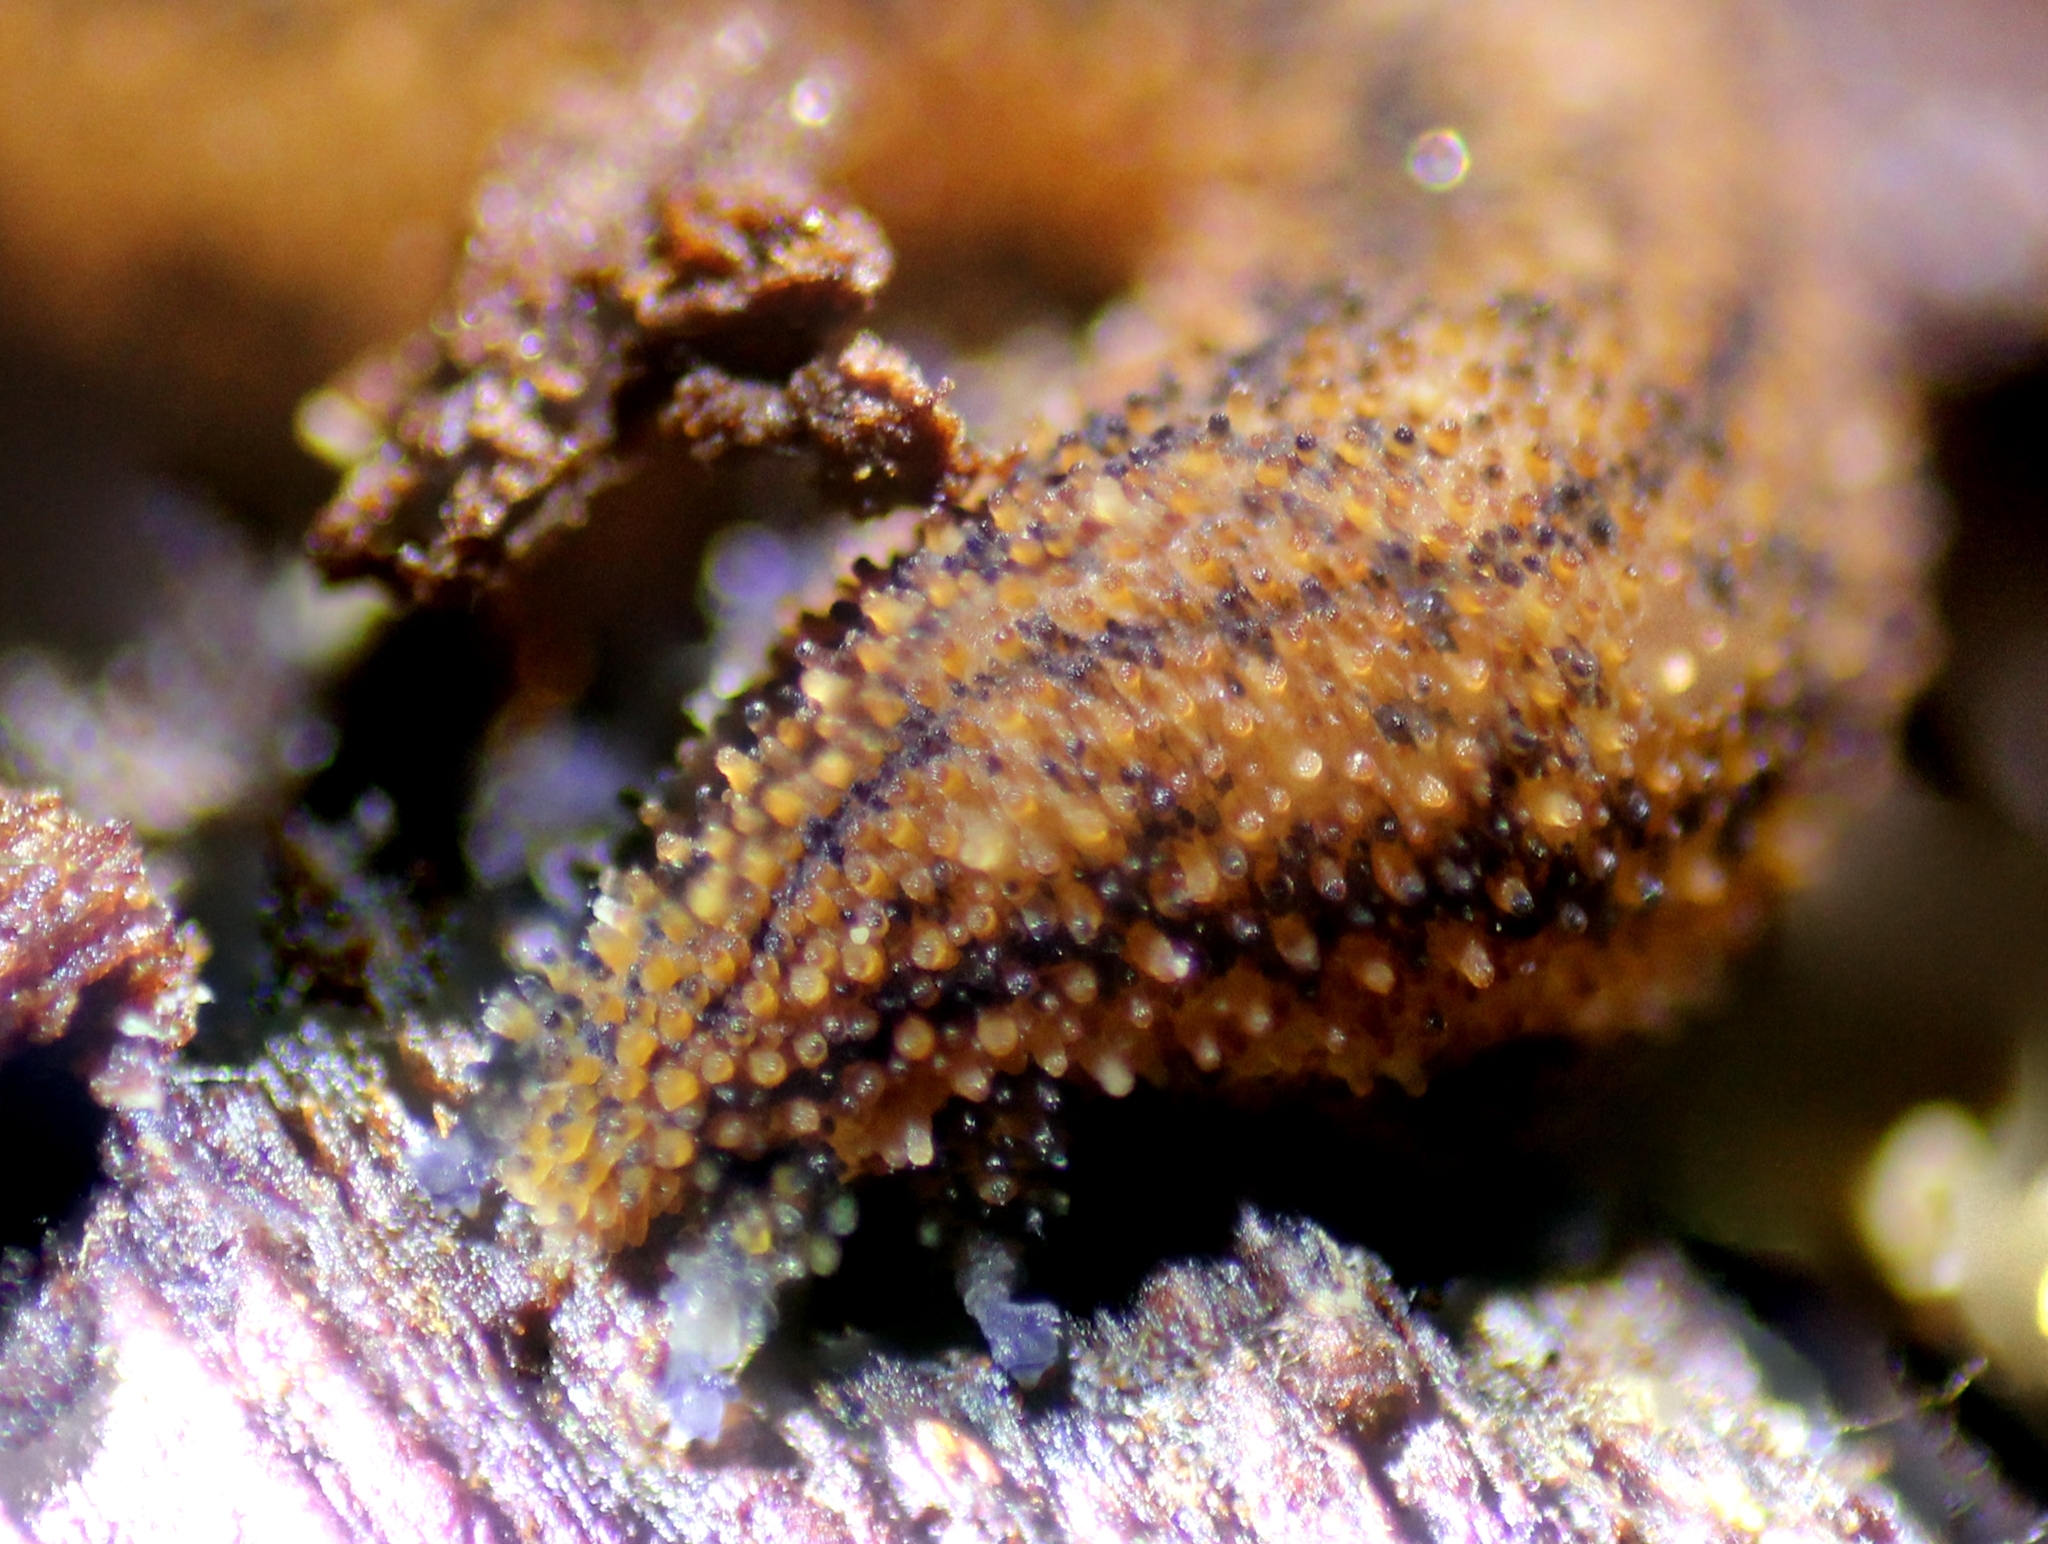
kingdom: Animalia
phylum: Onychophora
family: Peripatopsidae
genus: Kumbadjena
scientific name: Kumbadjena kaata
